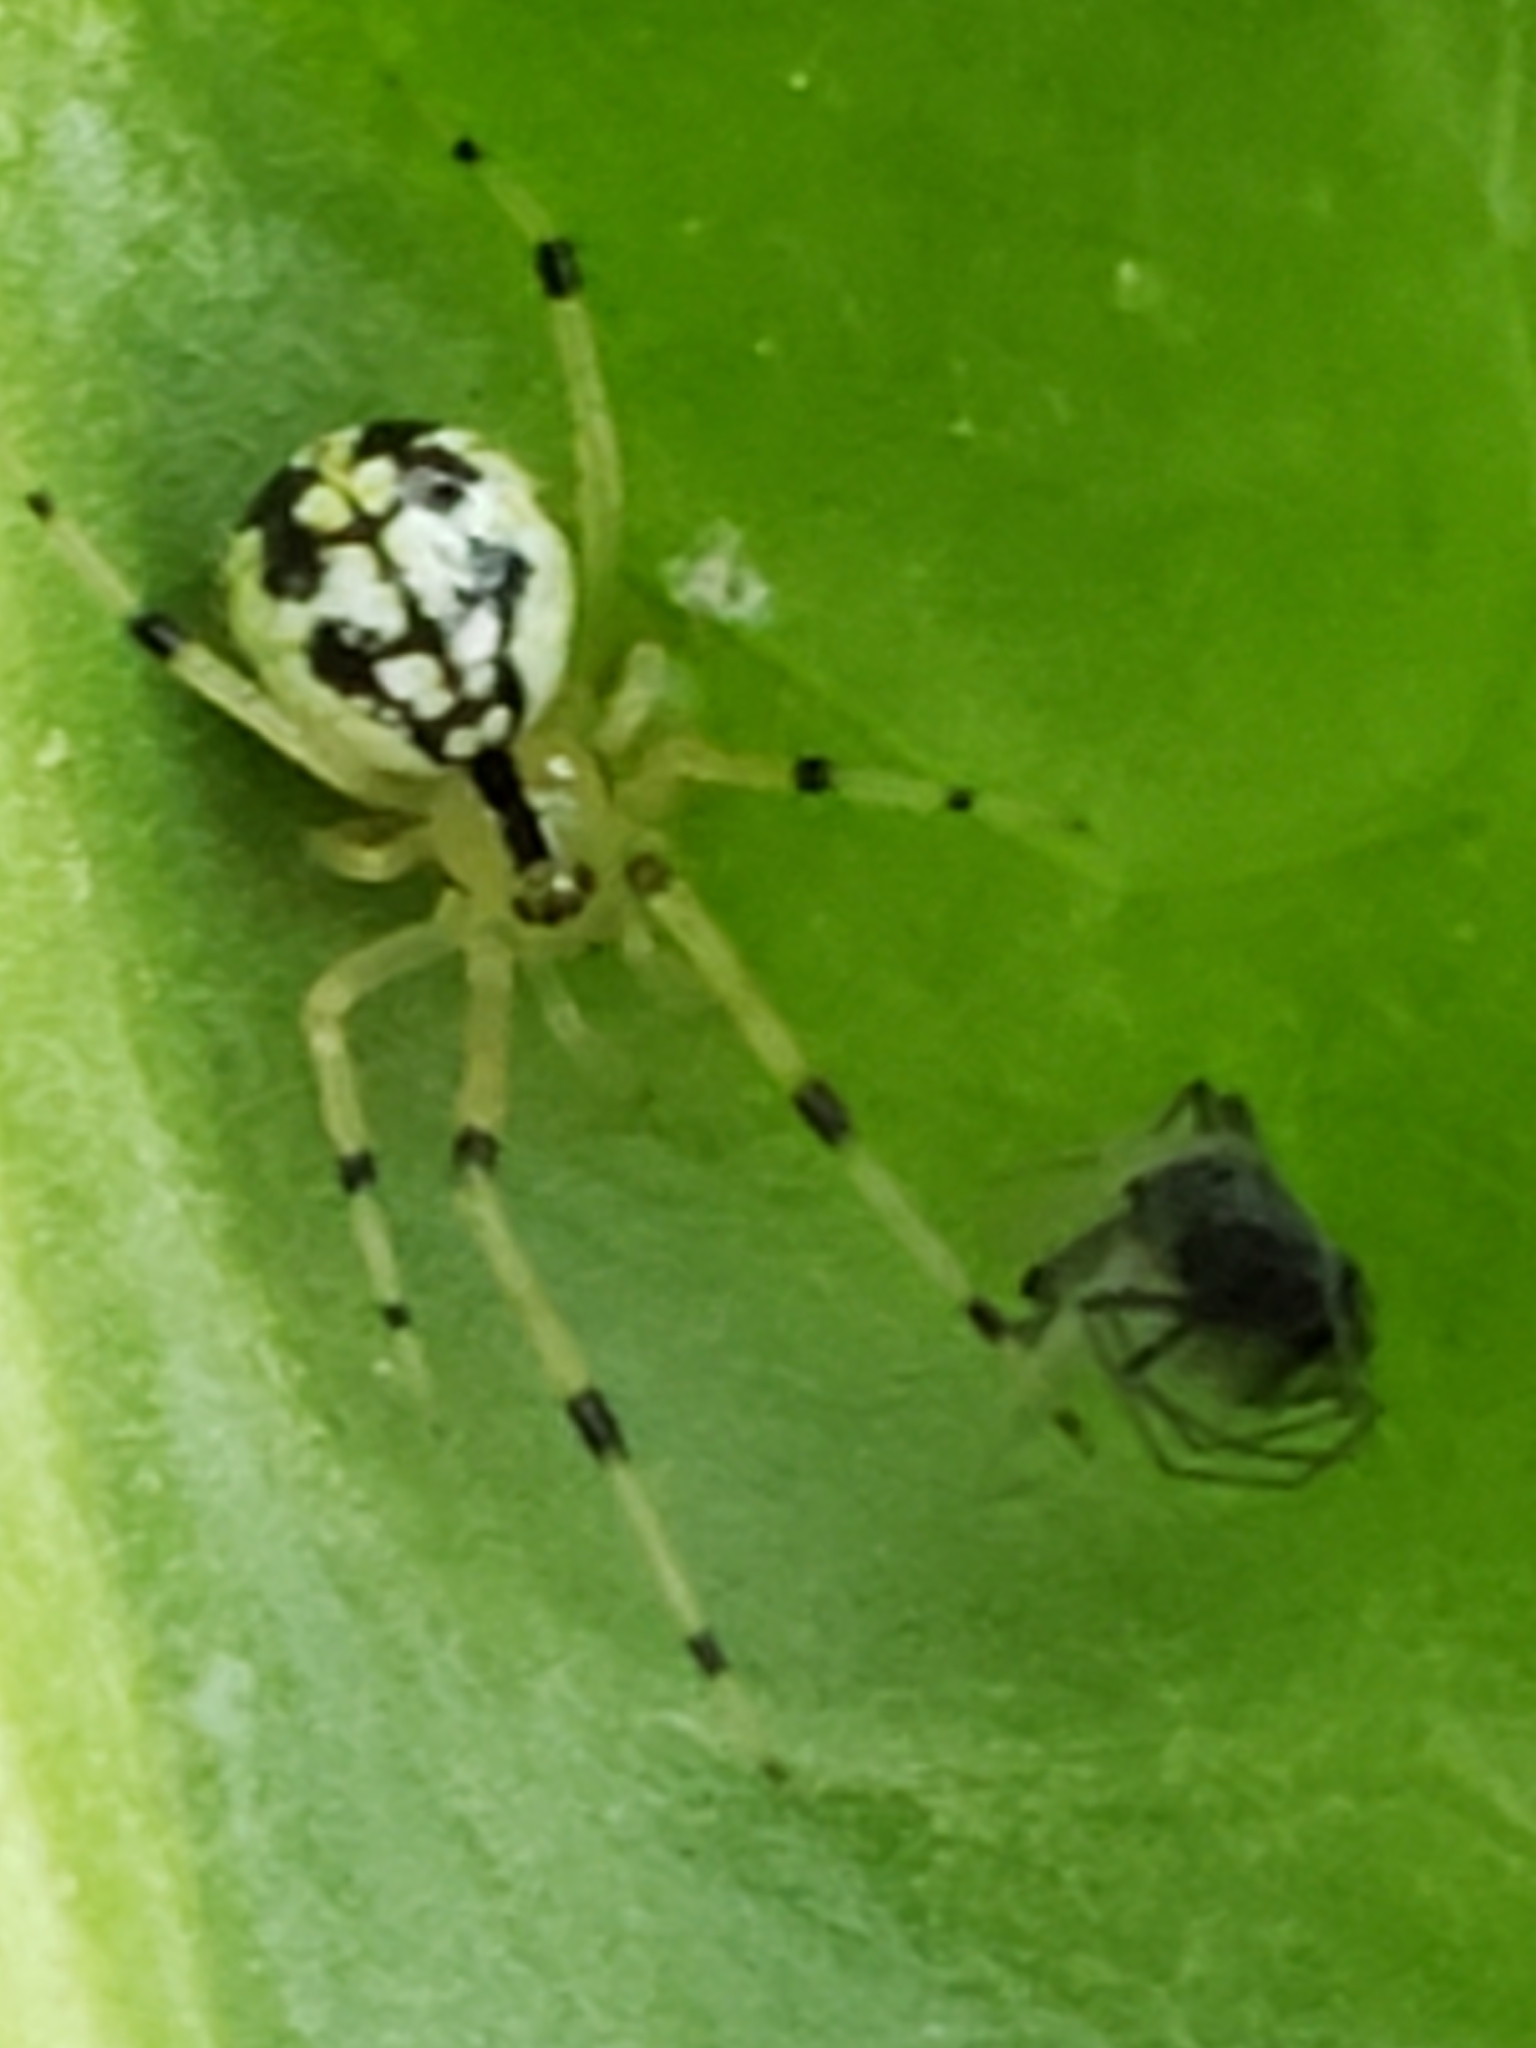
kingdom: Animalia
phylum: Arthropoda
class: Arachnida
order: Araneae
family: Theridiidae
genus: Phylloneta
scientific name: Phylloneta pictipes
